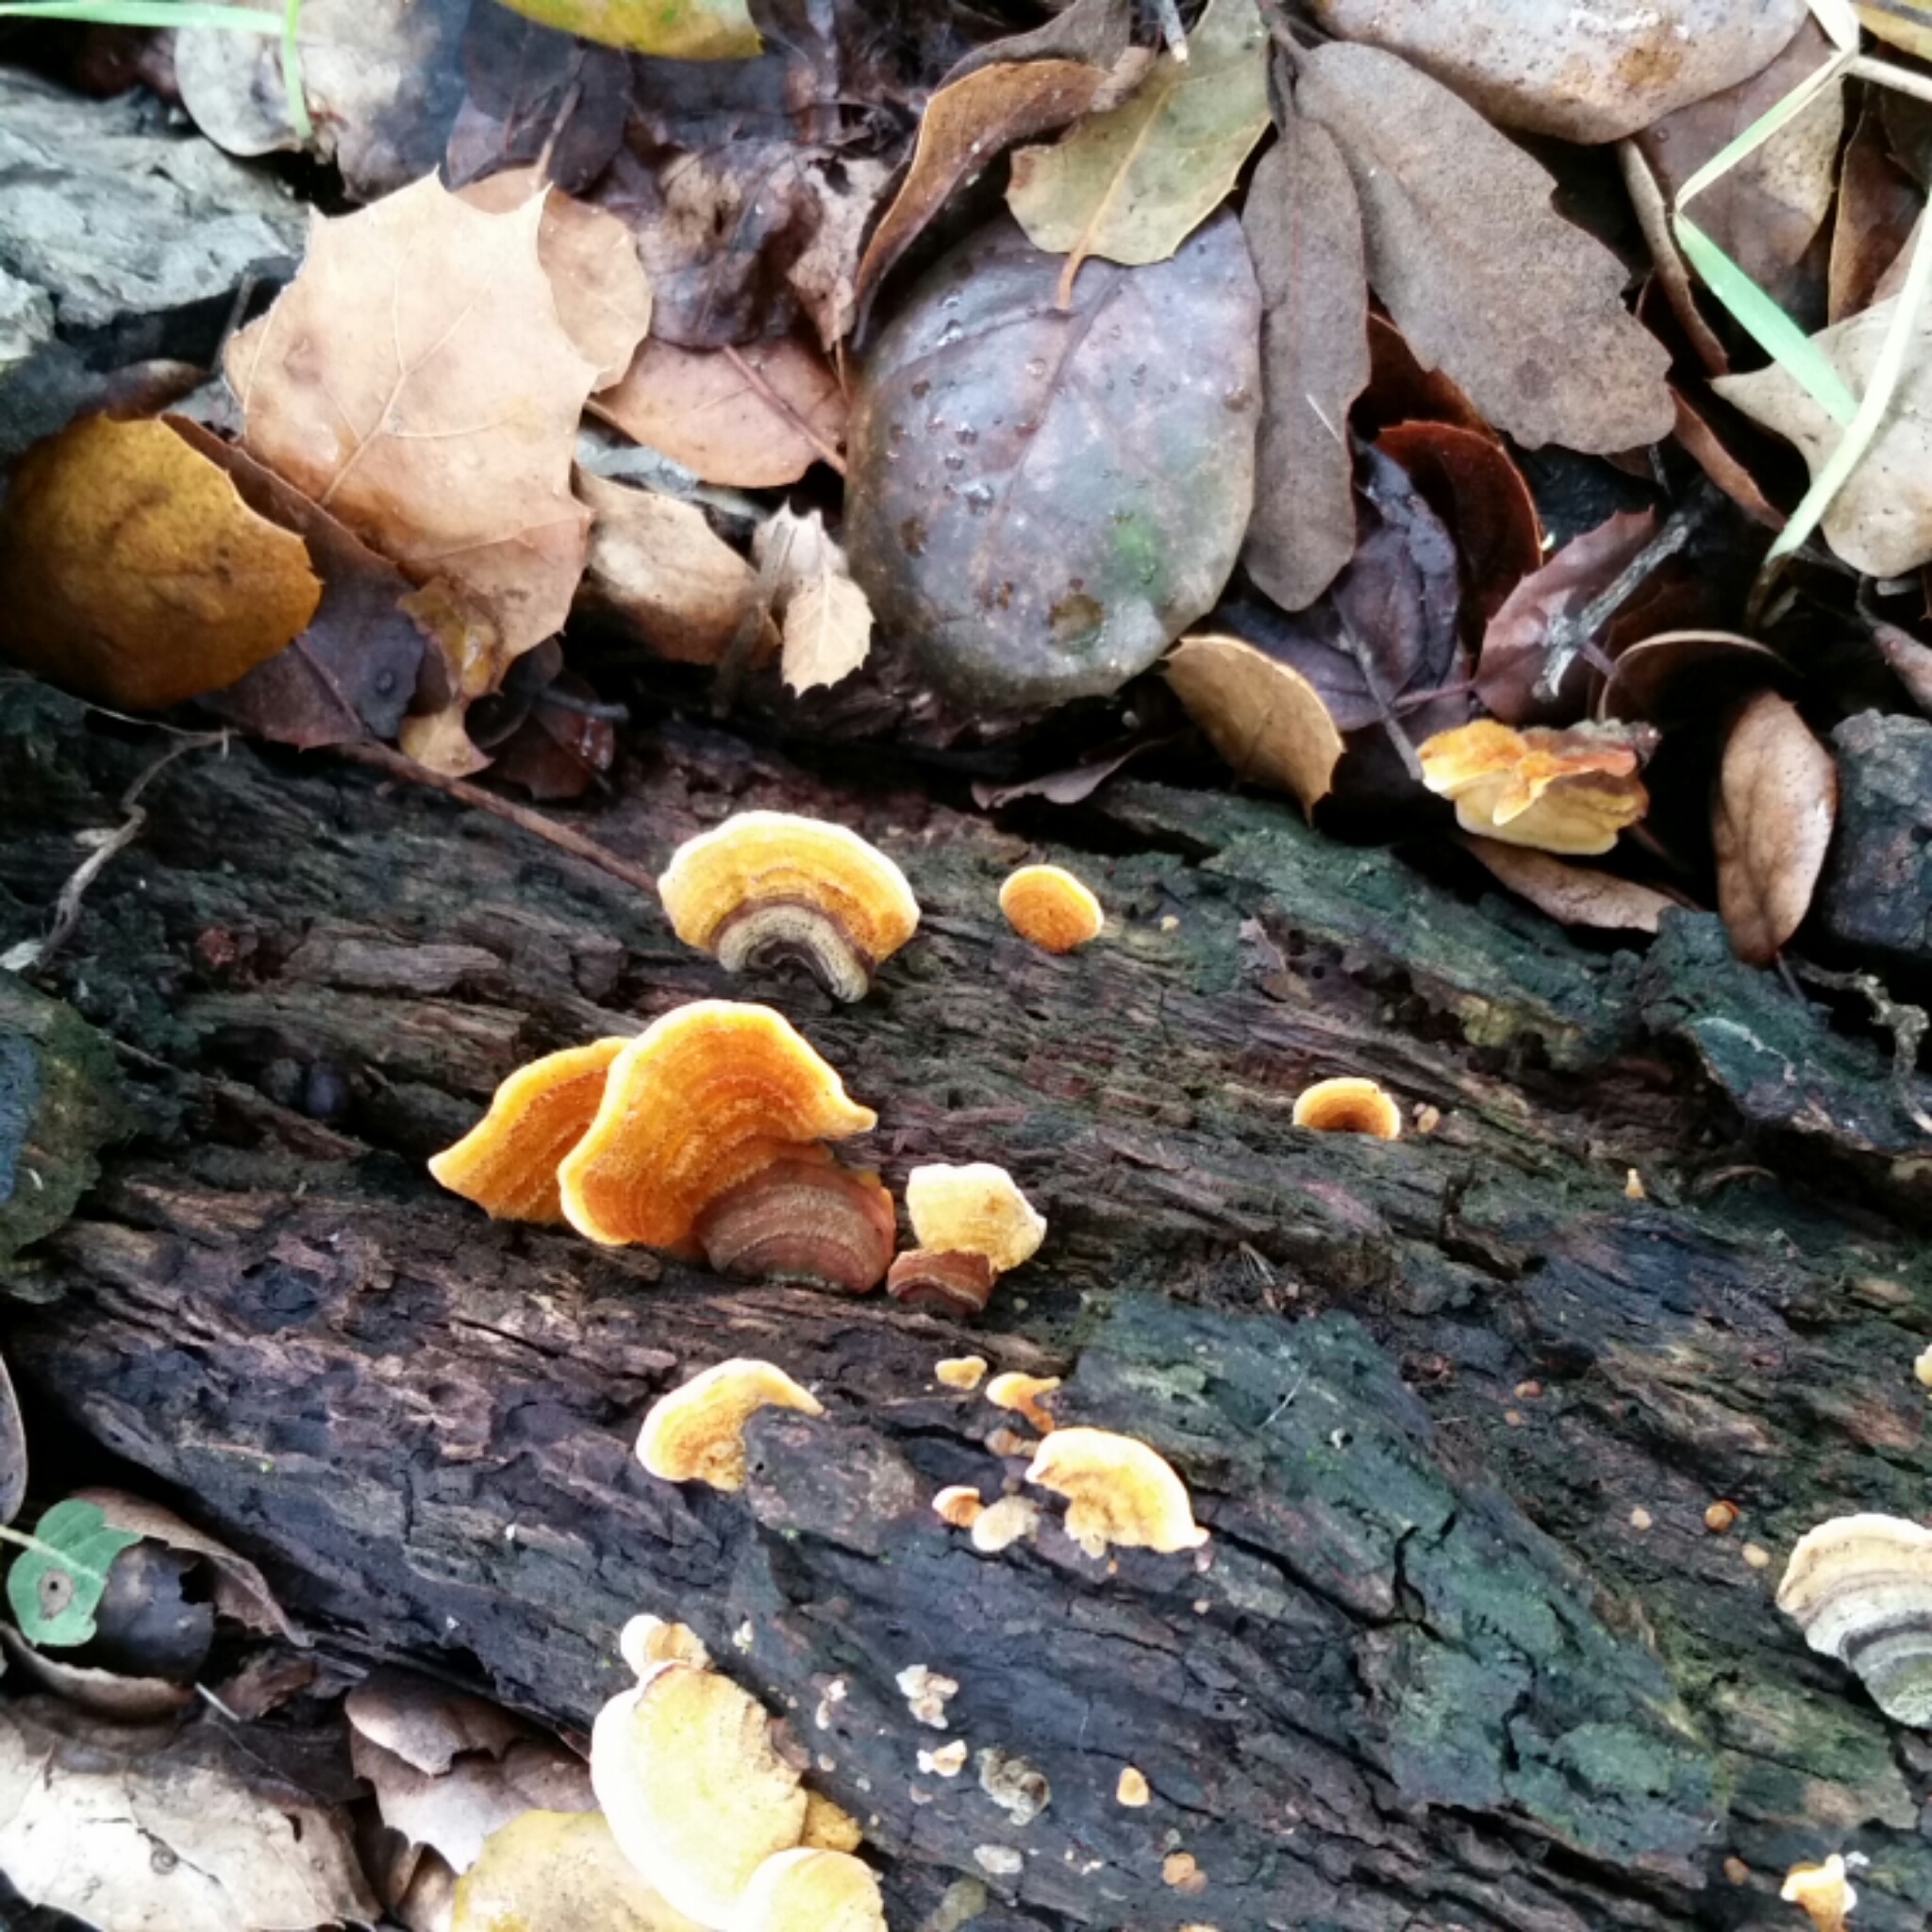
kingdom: Fungi
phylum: Basidiomycota
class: Agaricomycetes
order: Russulales
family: Stereaceae
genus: Stereum
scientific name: Stereum hirsutum
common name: Hairy curtain crust
